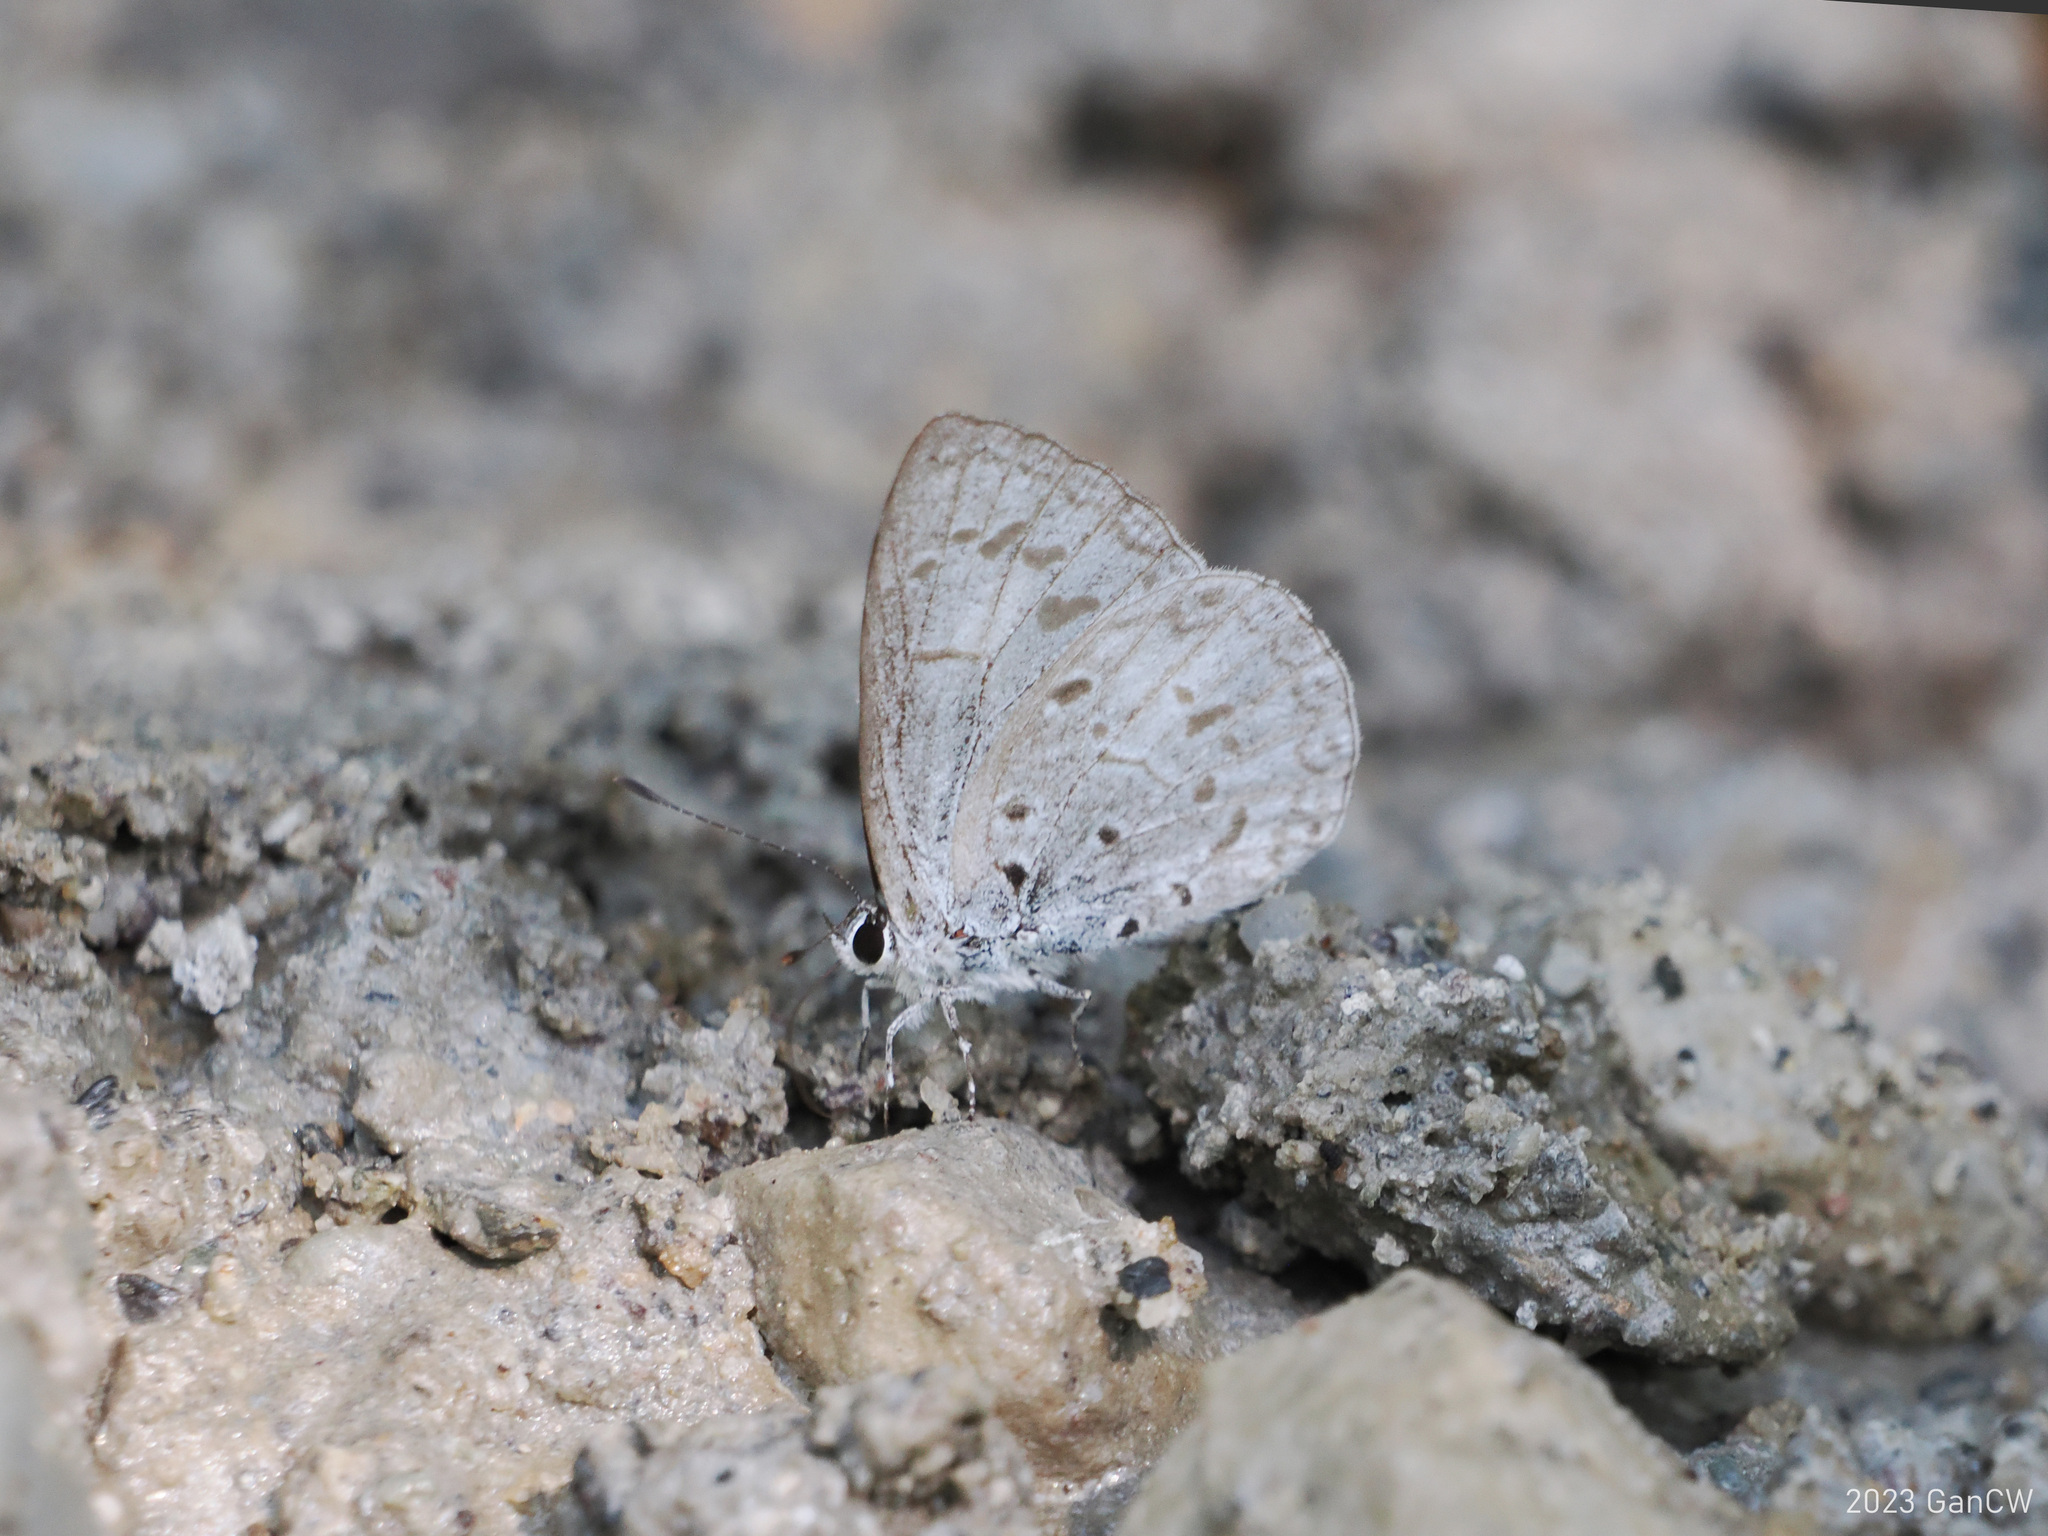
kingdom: Animalia
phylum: Arthropoda
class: Insecta
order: Lepidoptera
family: Lycaenidae
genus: Acytolepis
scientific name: Acytolepis puspa
